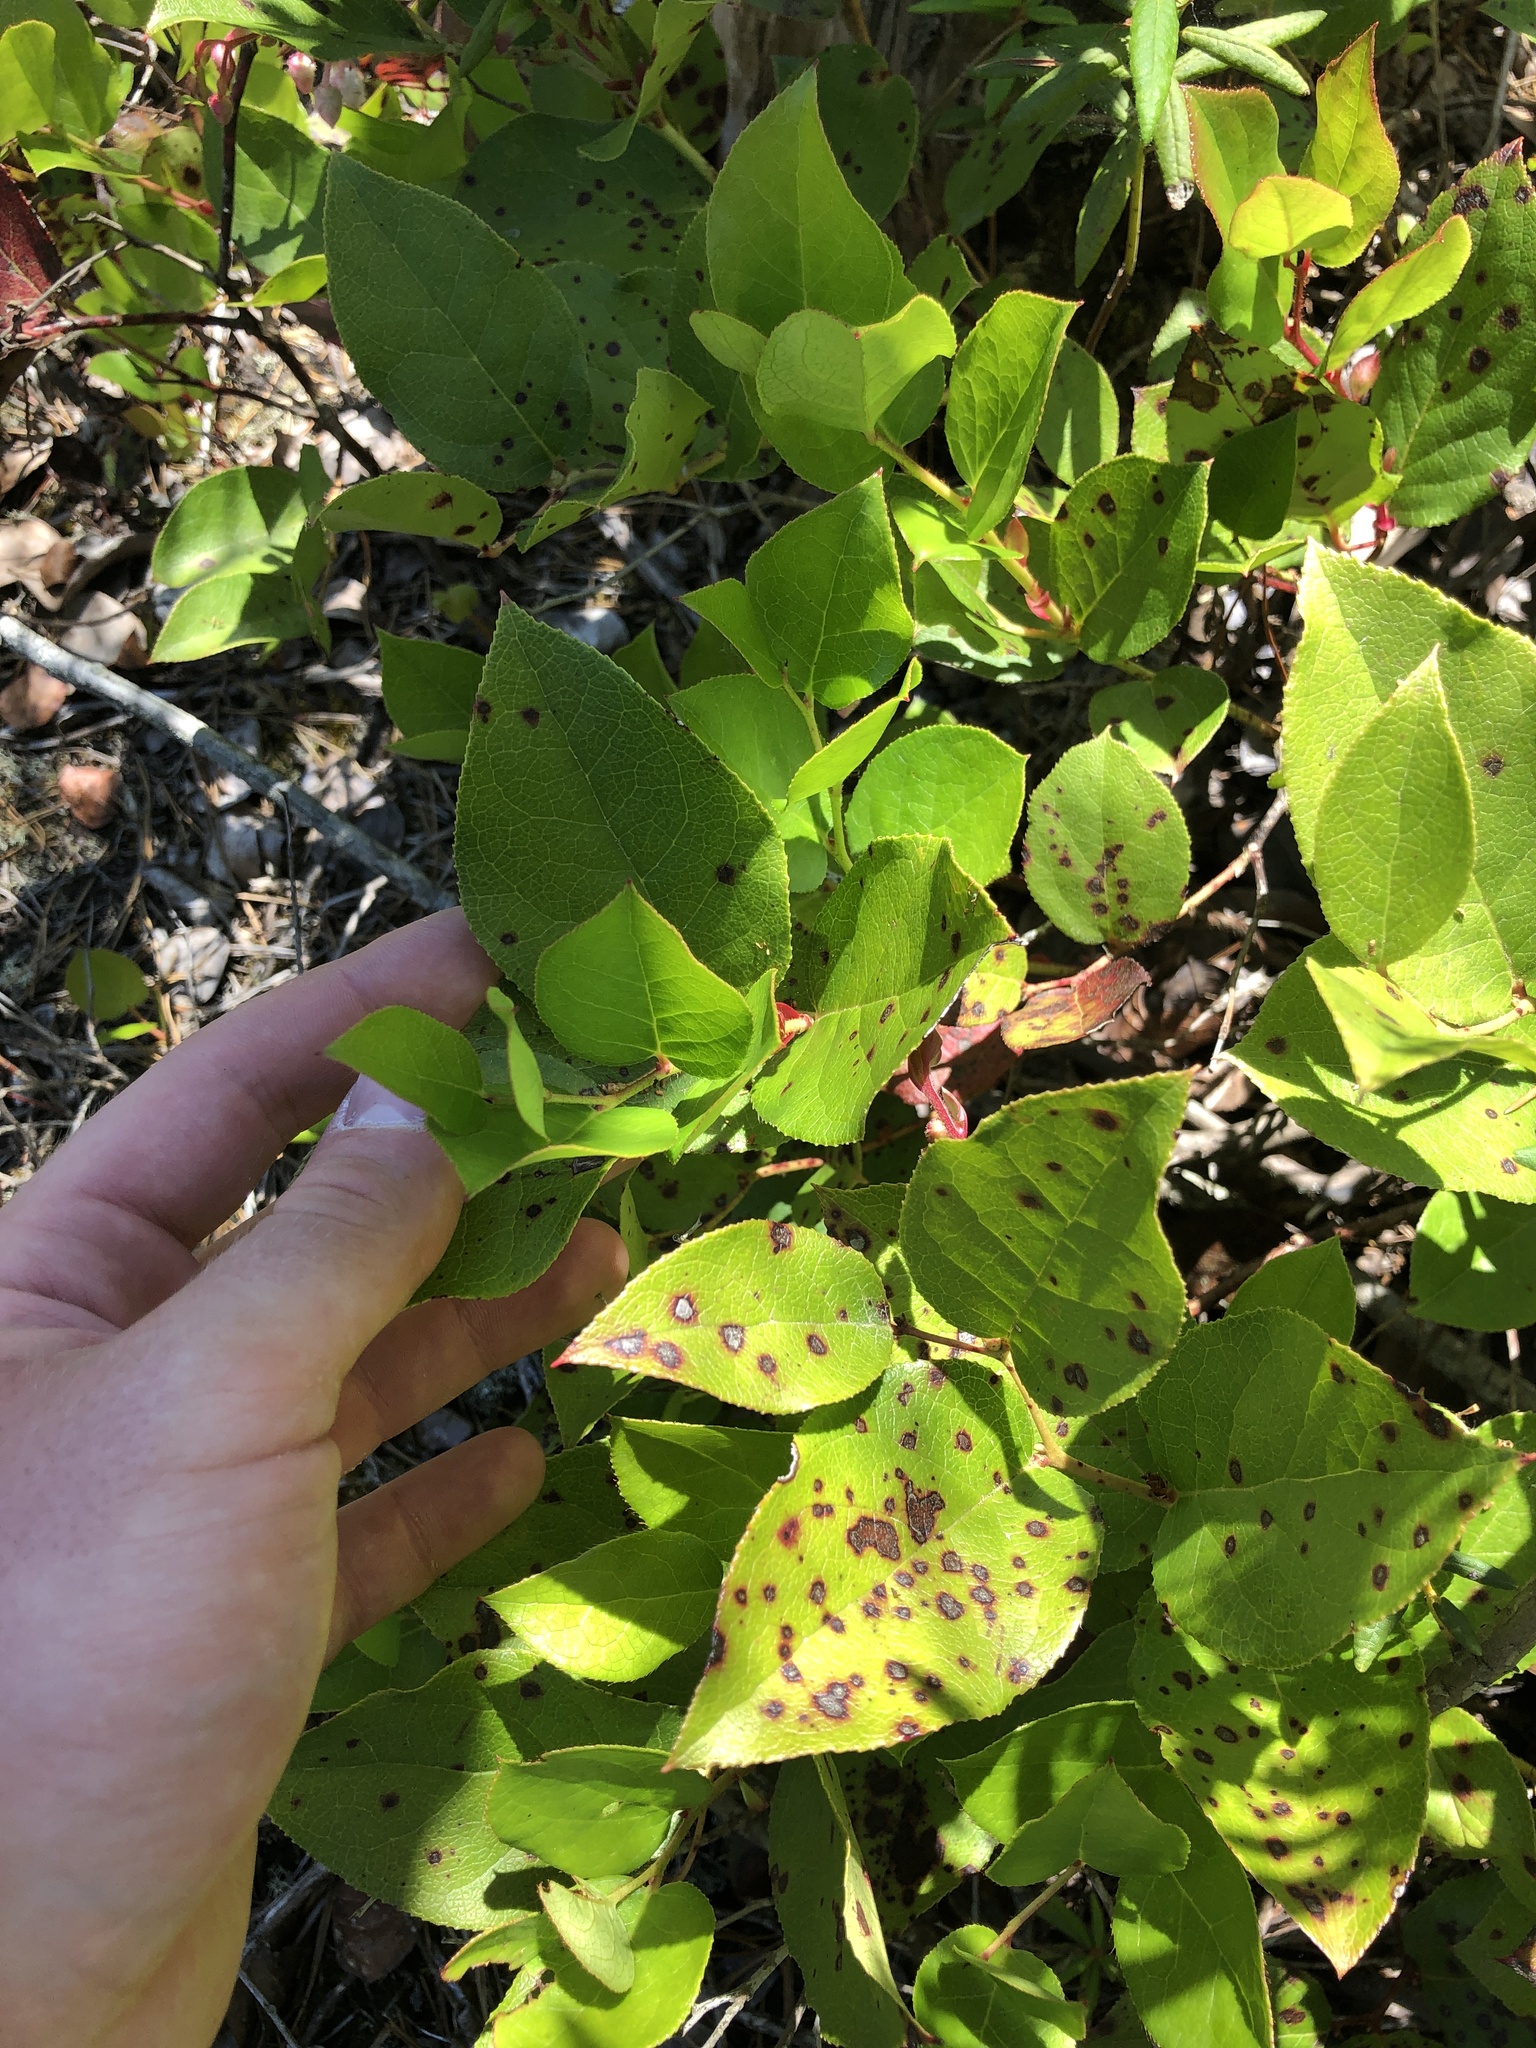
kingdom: Plantae
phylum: Tracheophyta
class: Magnoliopsida
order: Ericales
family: Ericaceae
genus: Gaultheria
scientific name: Gaultheria shallon
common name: Shallon
